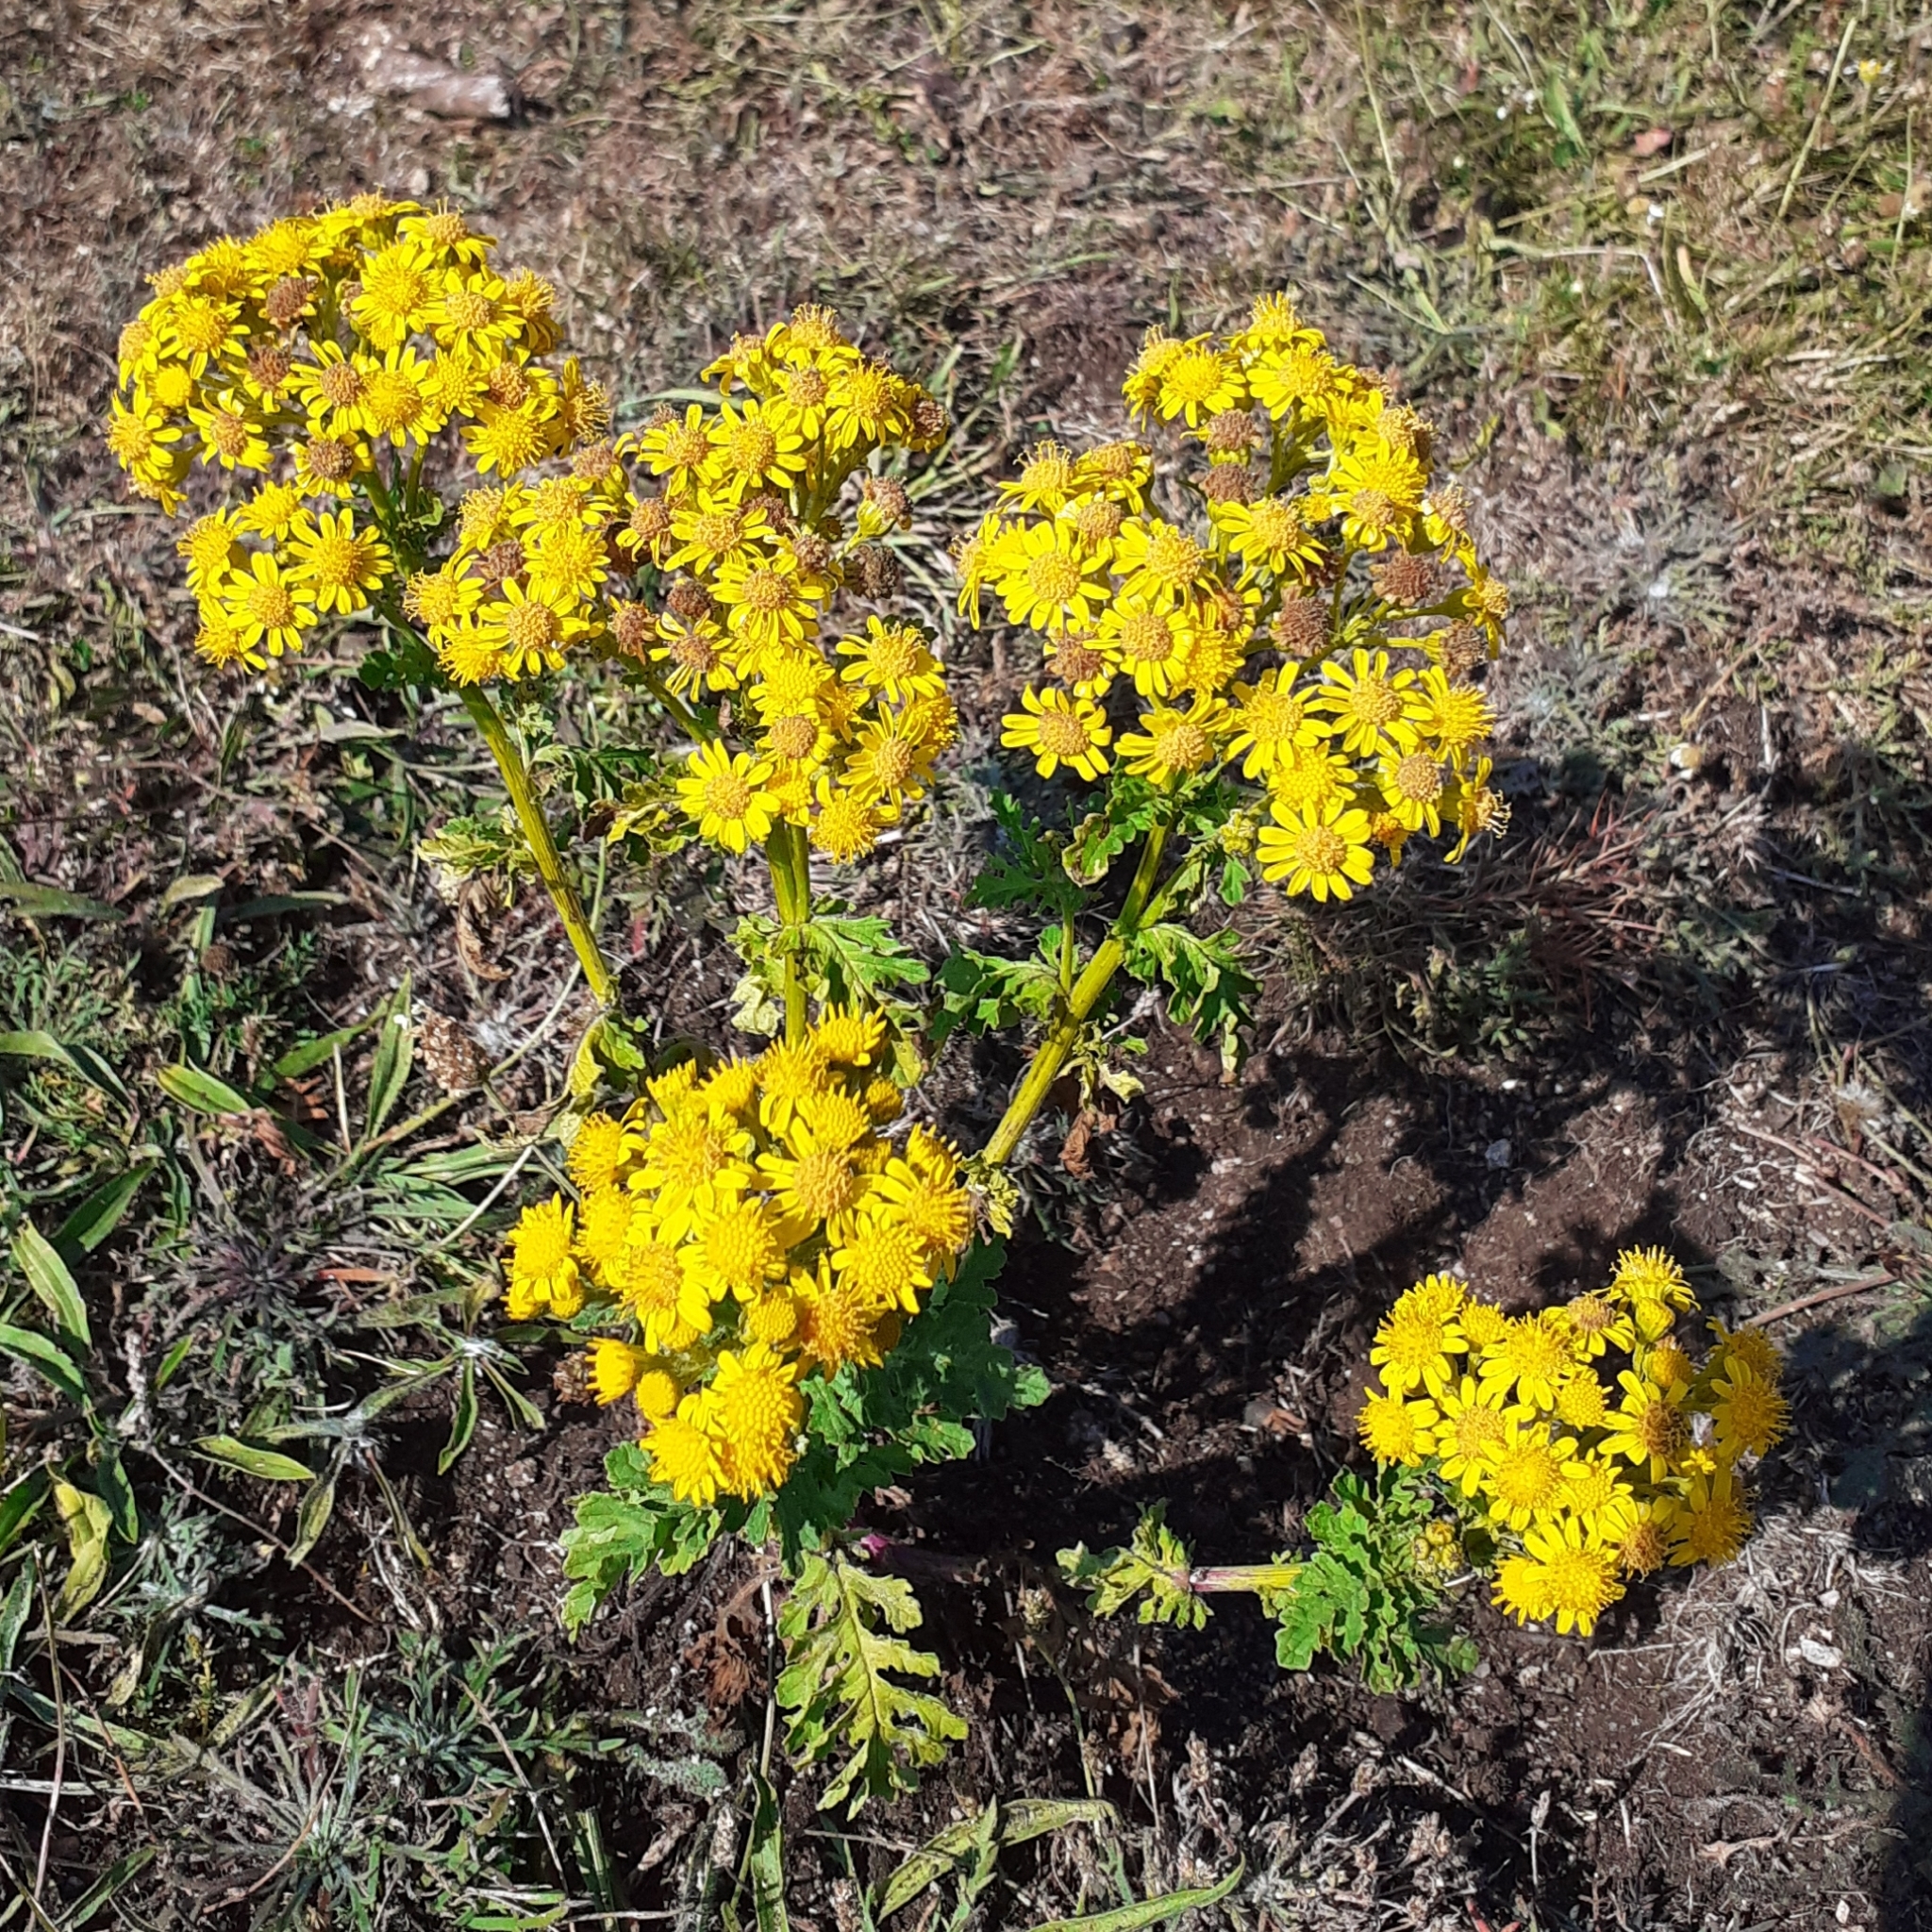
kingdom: Plantae
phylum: Tracheophyta
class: Magnoliopsida
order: Asterales
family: Asteraceae
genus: Jacobaea
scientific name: Jacobaea vulgaris
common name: Stinking willie
